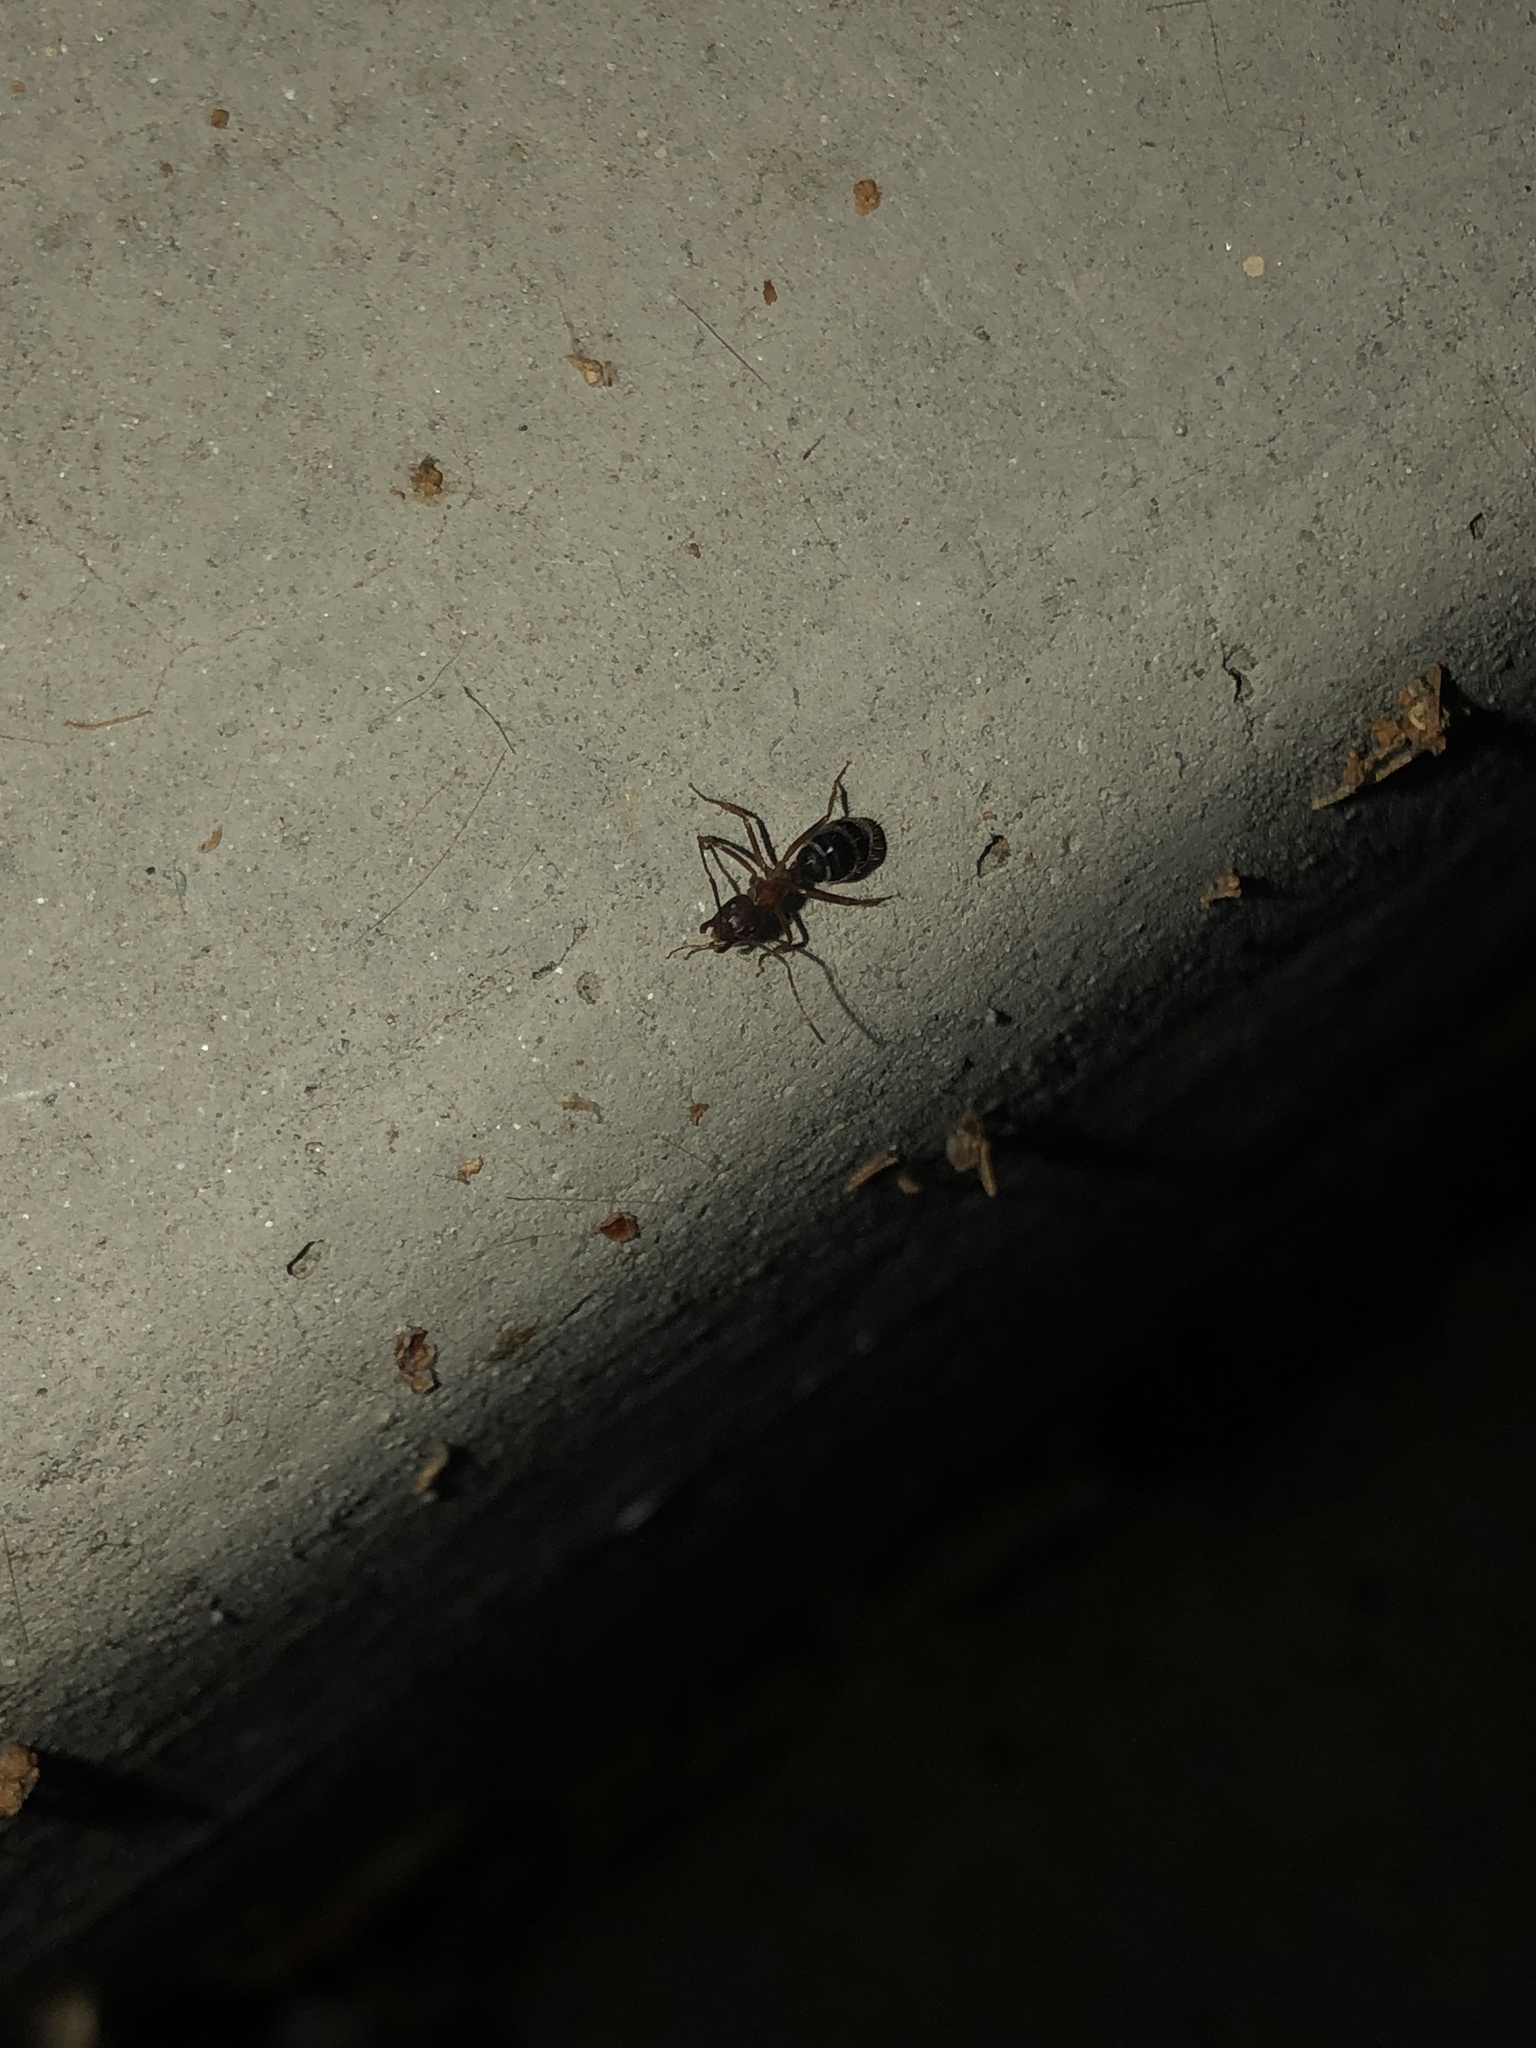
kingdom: Animalia
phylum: Arthropoda
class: Insecta
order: Hymenoptera
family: Formicidae
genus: Camponotus
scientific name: Camponotus floridanus
